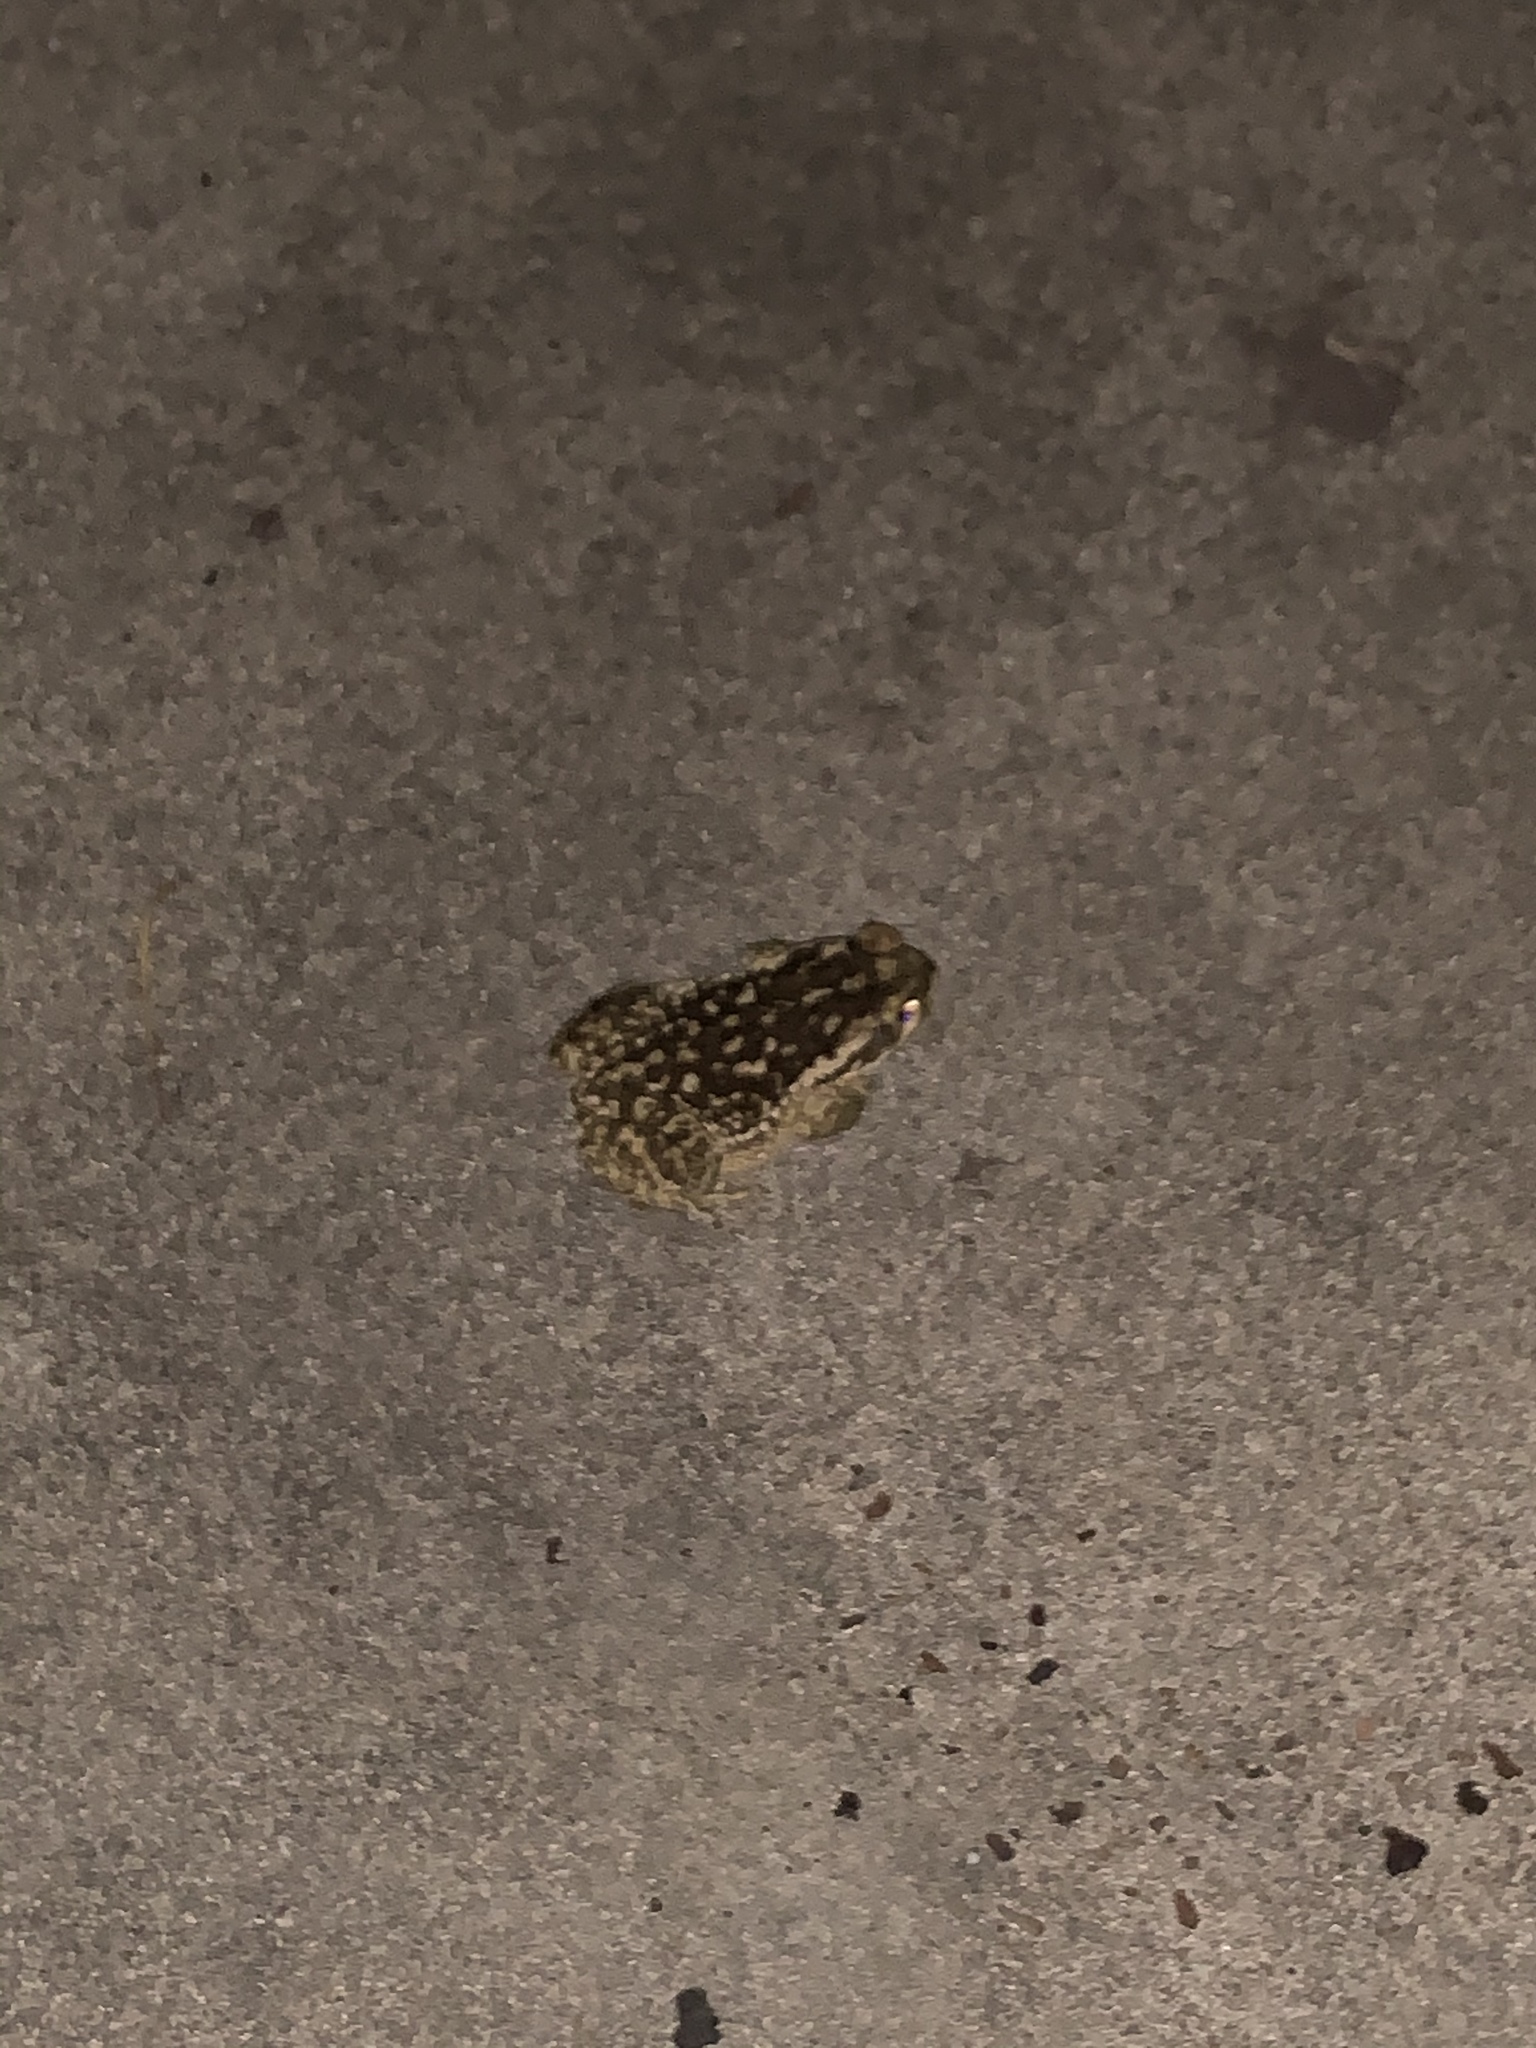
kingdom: Animalia
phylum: Chordata
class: Amphibia
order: Anura
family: Bufonidae
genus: Rhinella
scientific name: Rhinella diptycha
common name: Cope's toad
